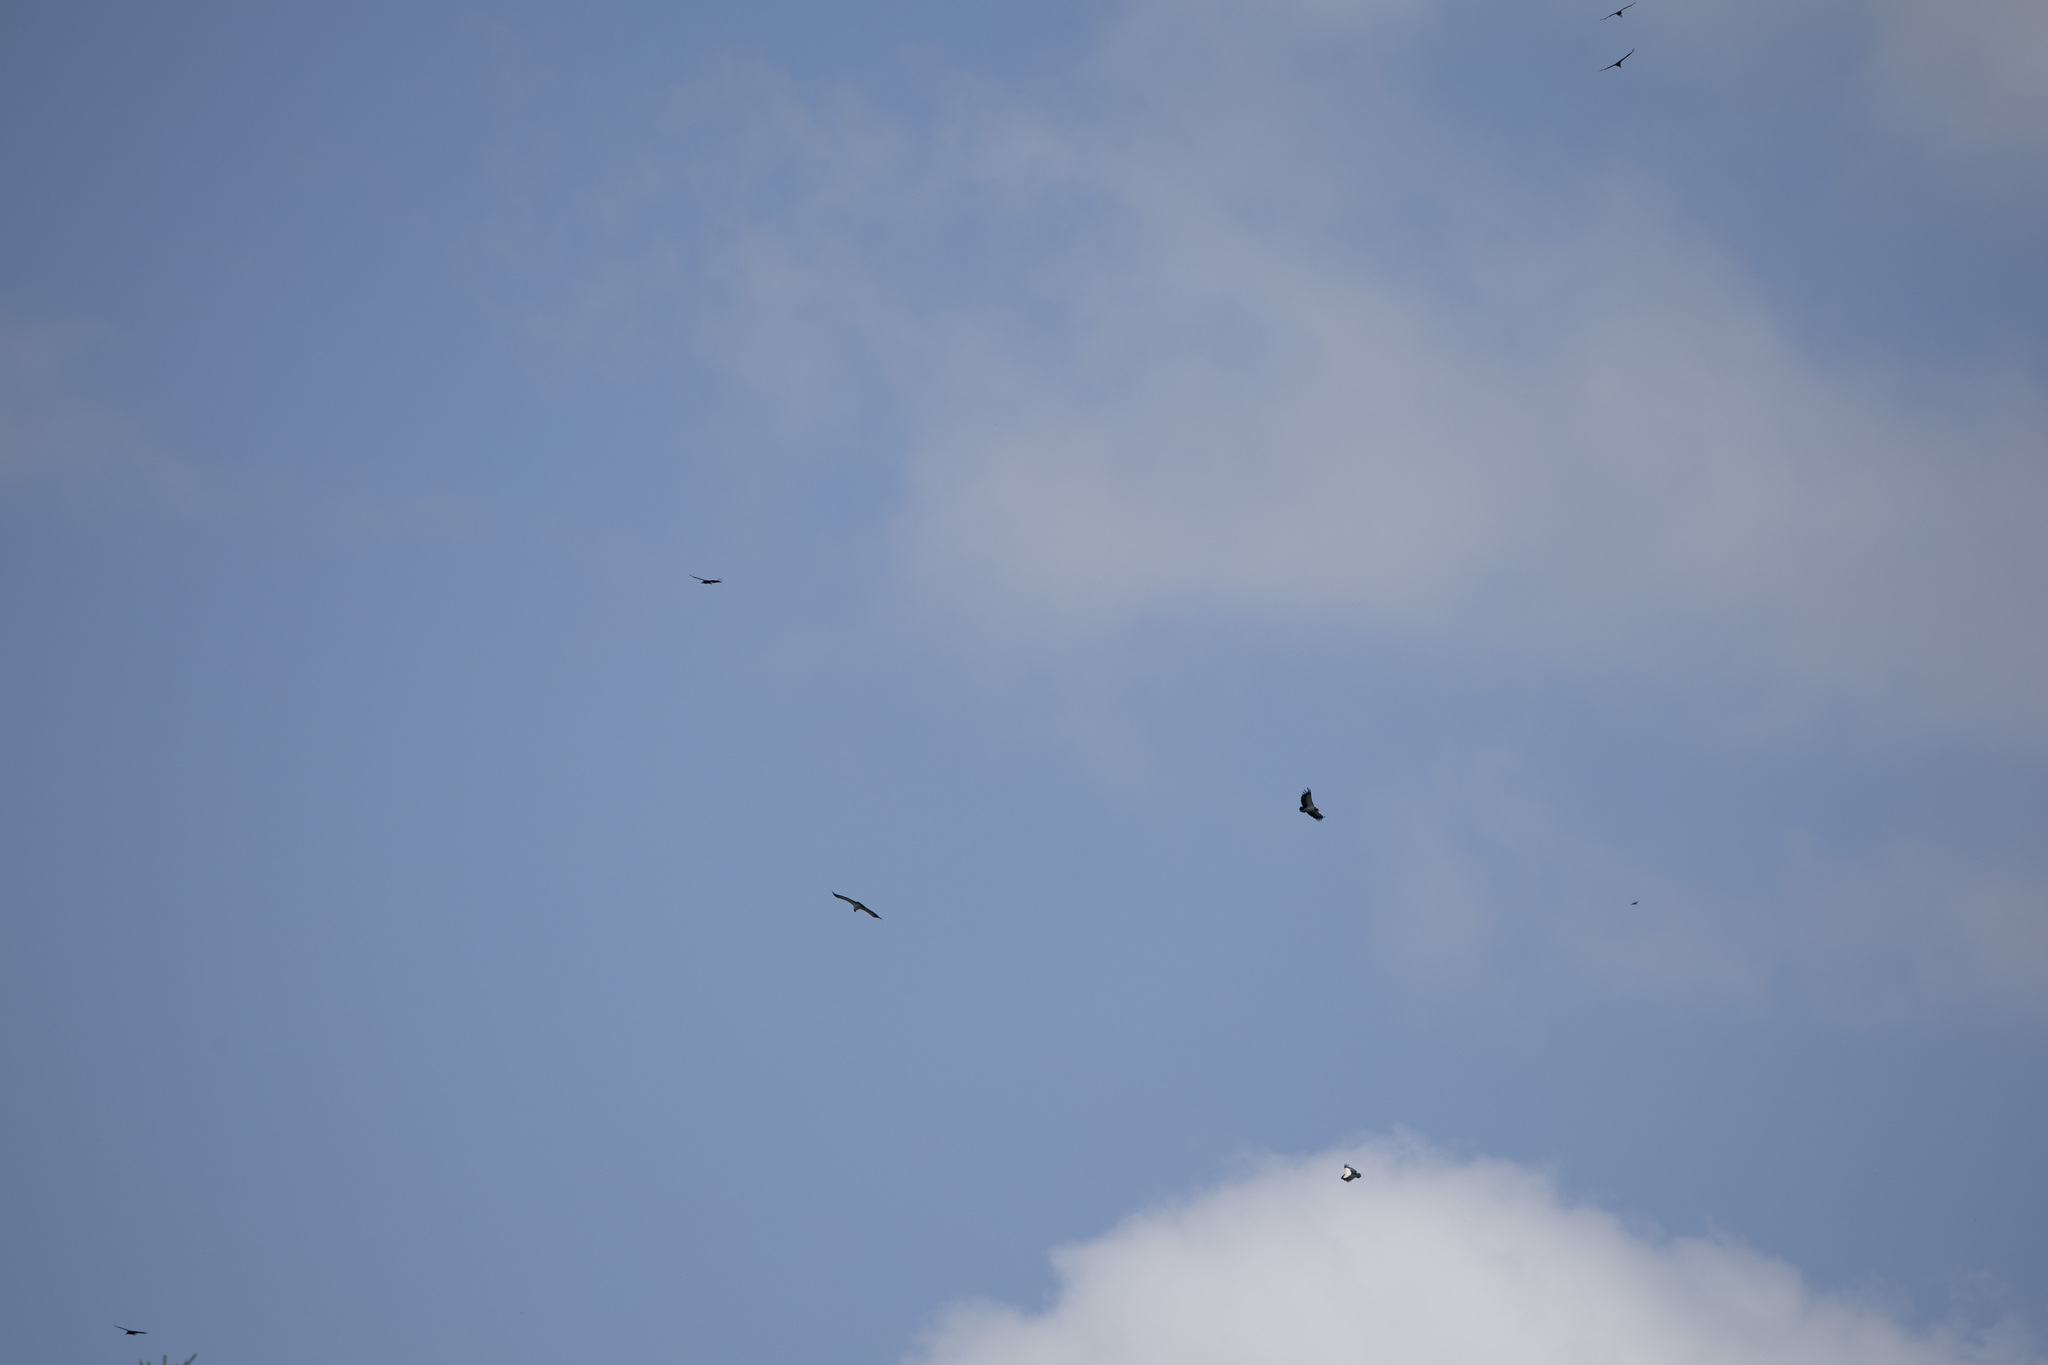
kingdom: Animalia
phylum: Chordata
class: Aves
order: Accipitriformes
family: Cathartidae
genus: Sarcoramphus
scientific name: Sarcoramphus papa
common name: King vulture
